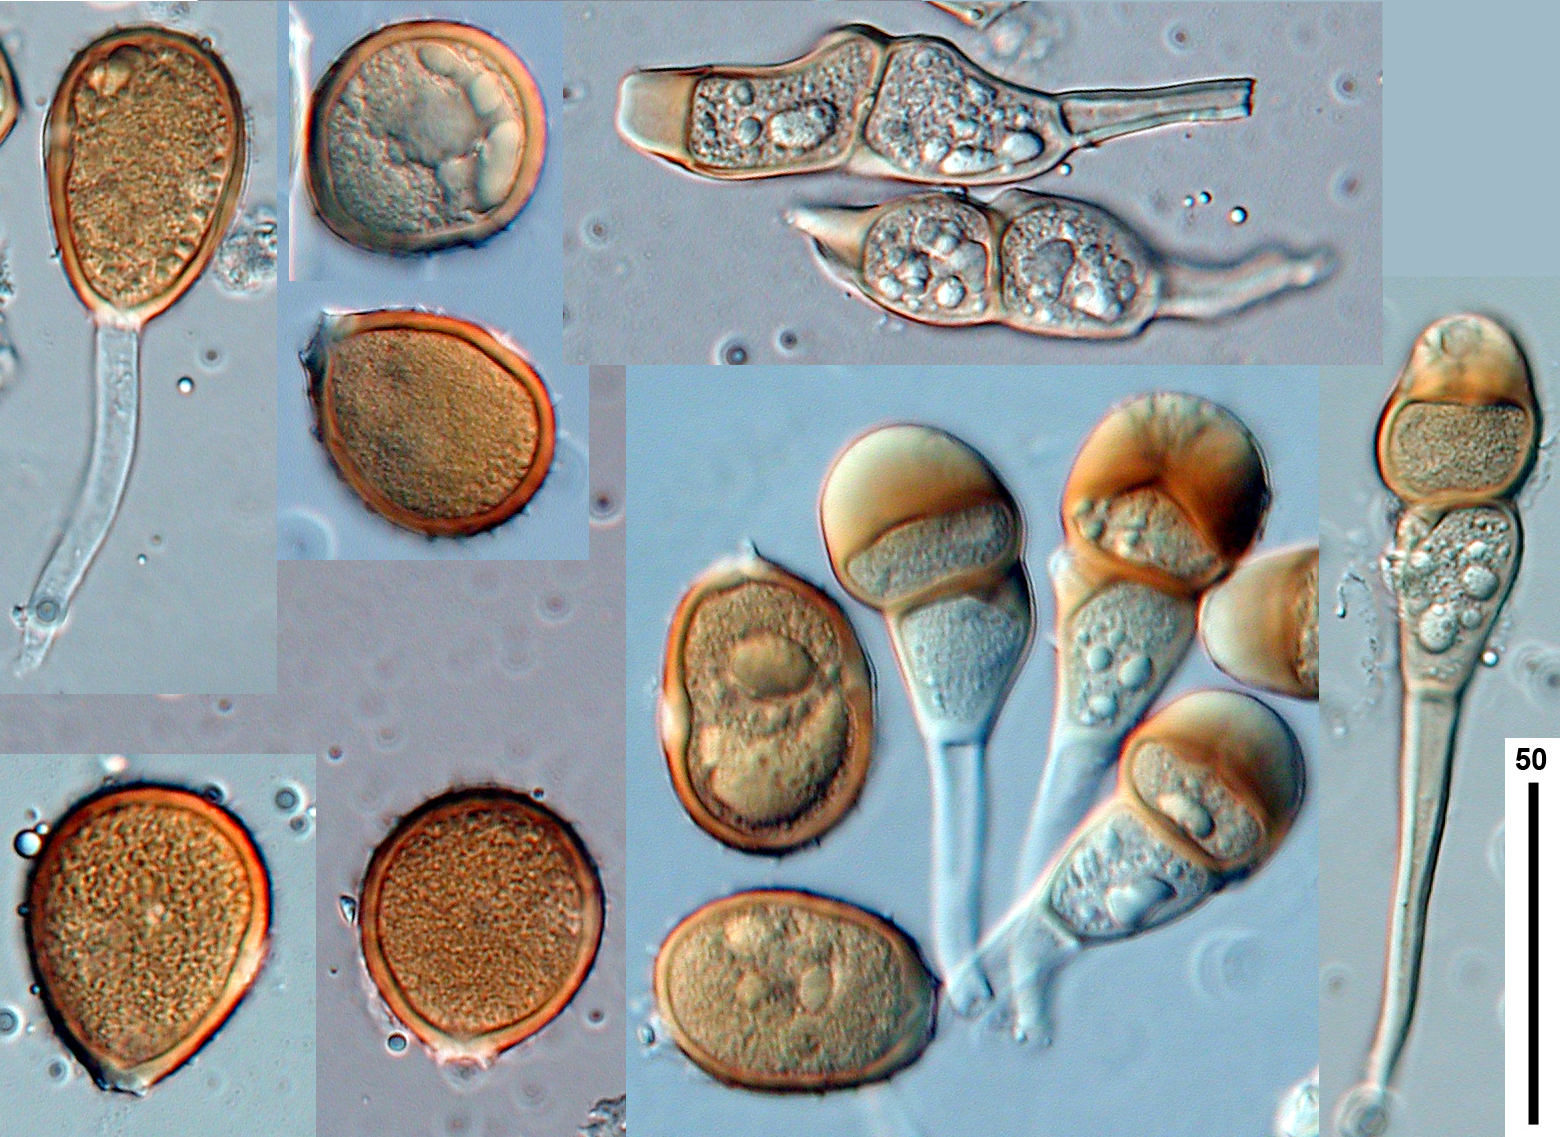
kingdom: Fungi
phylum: Basidiomycota
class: Pucciniomycetes
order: Pucciniales
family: Pucciniaceae
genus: Puccinia
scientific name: Puccinia urticata
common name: Nettle clustercup rust fungus
